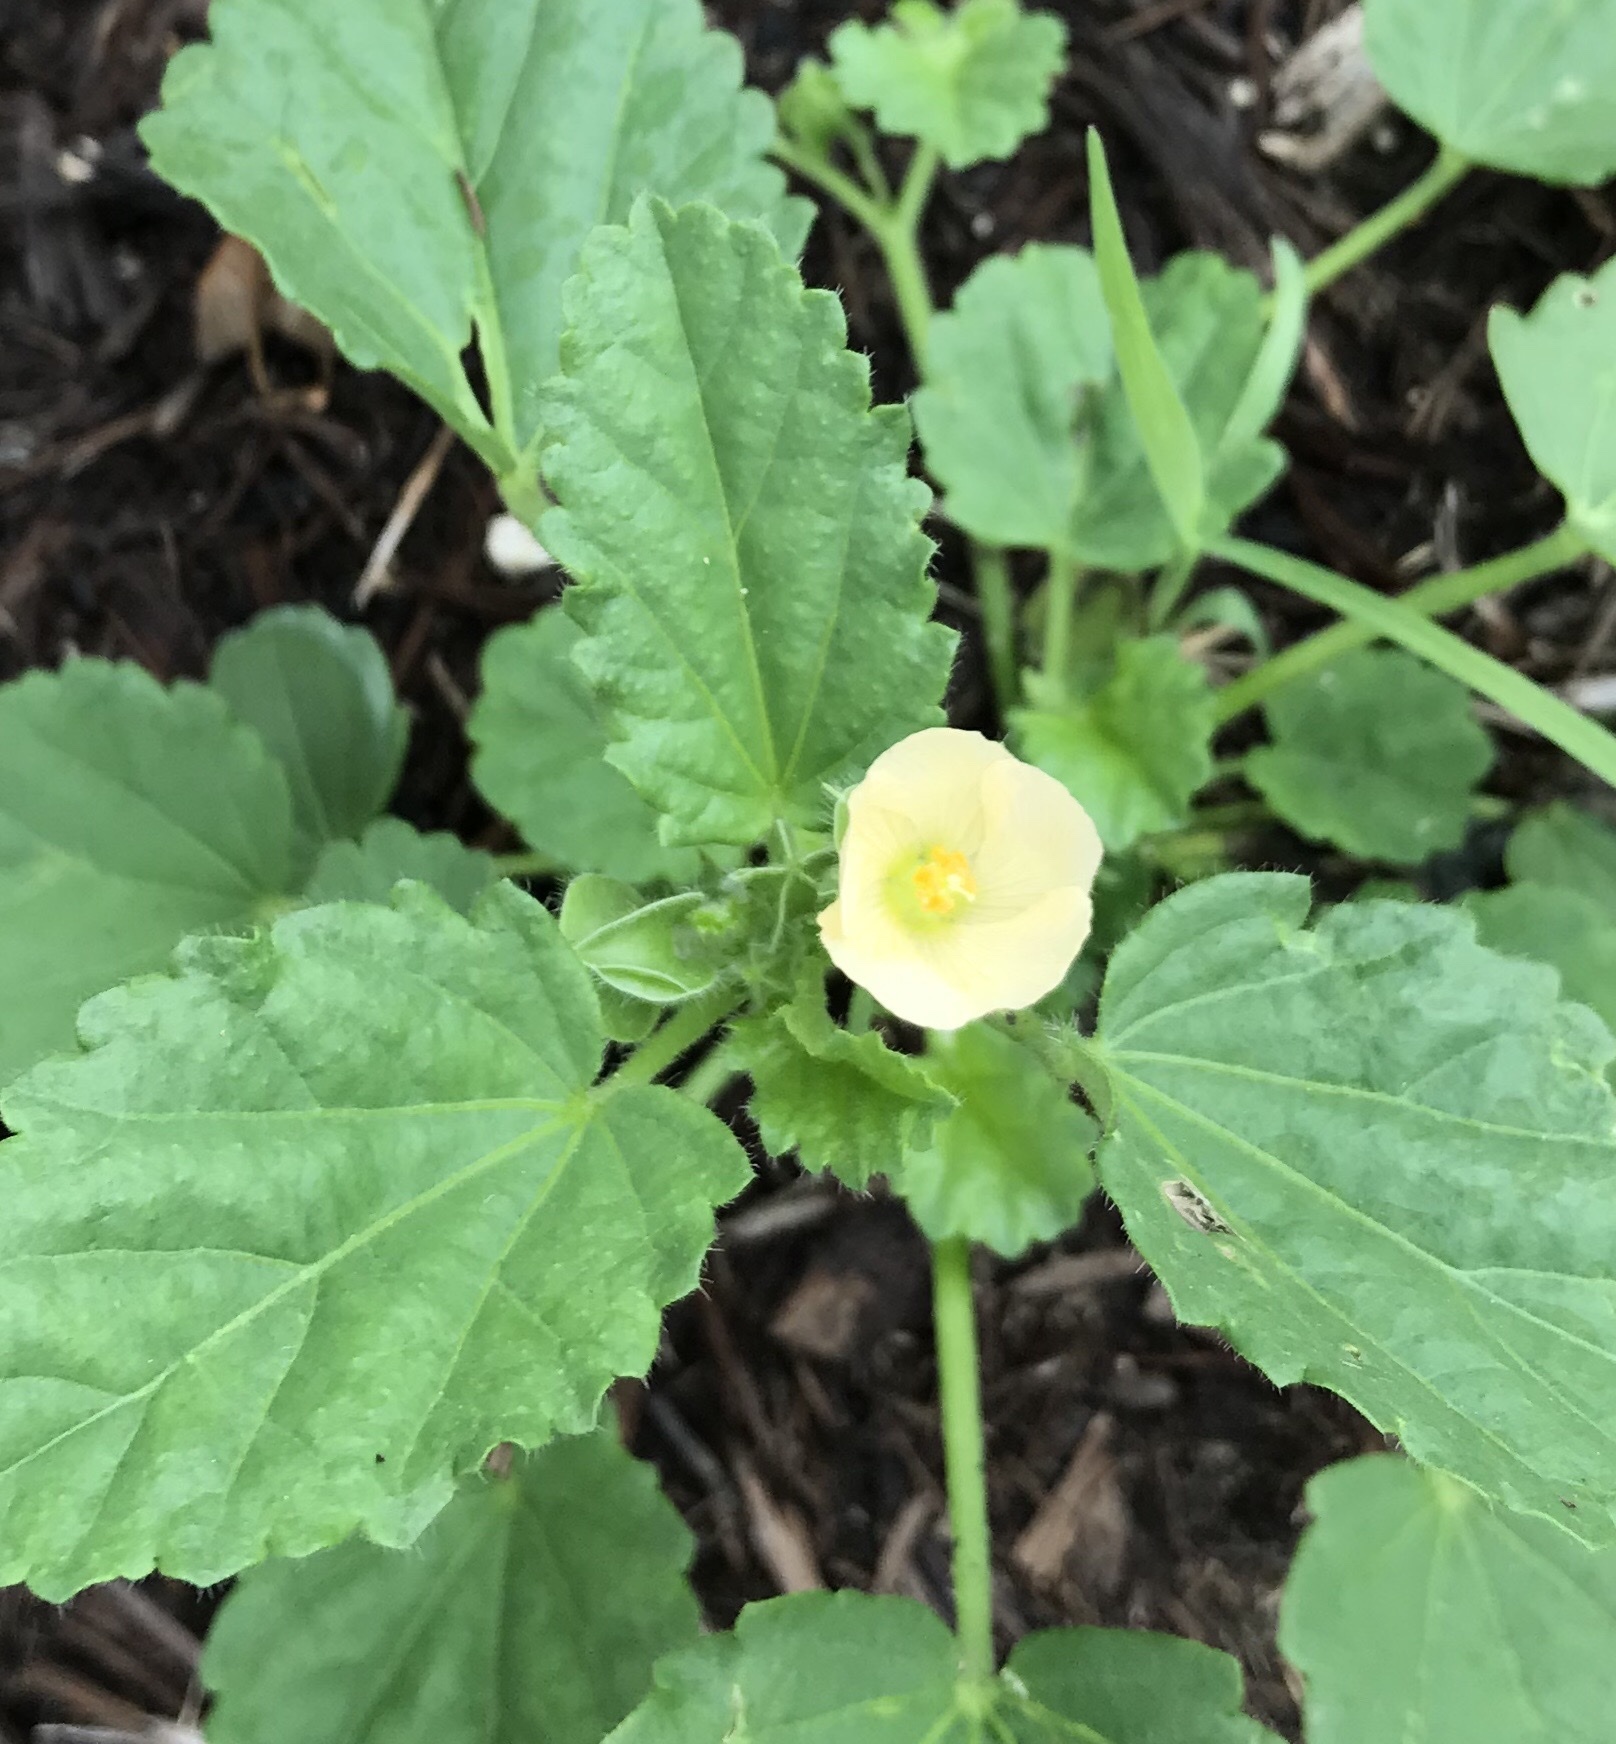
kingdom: Plantae
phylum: Tracheophyta
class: Magnoliopsida
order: Malvales
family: Malvaceae
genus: Rhynchosida
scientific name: Rhynchosida physocalyx
